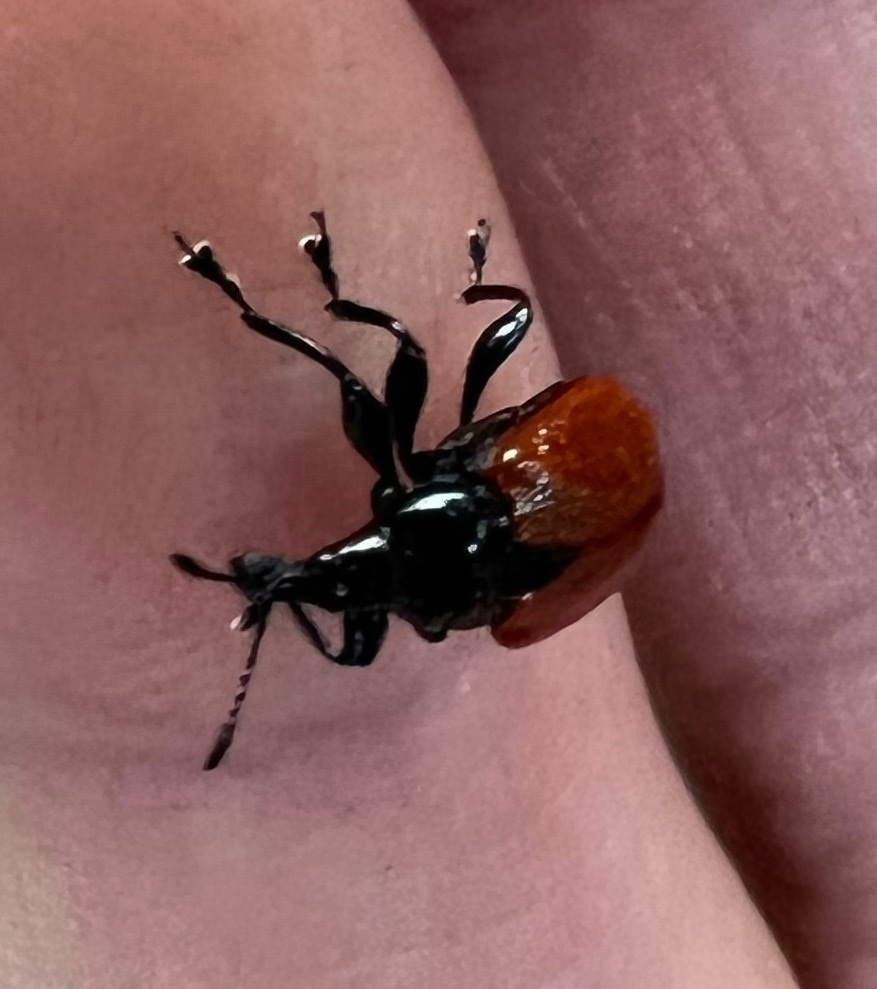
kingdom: Animalia
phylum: Arthropoda
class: Insecta
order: Coleoptera
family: Attelabidae
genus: Phialodes
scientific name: Phialodes rufipennis
